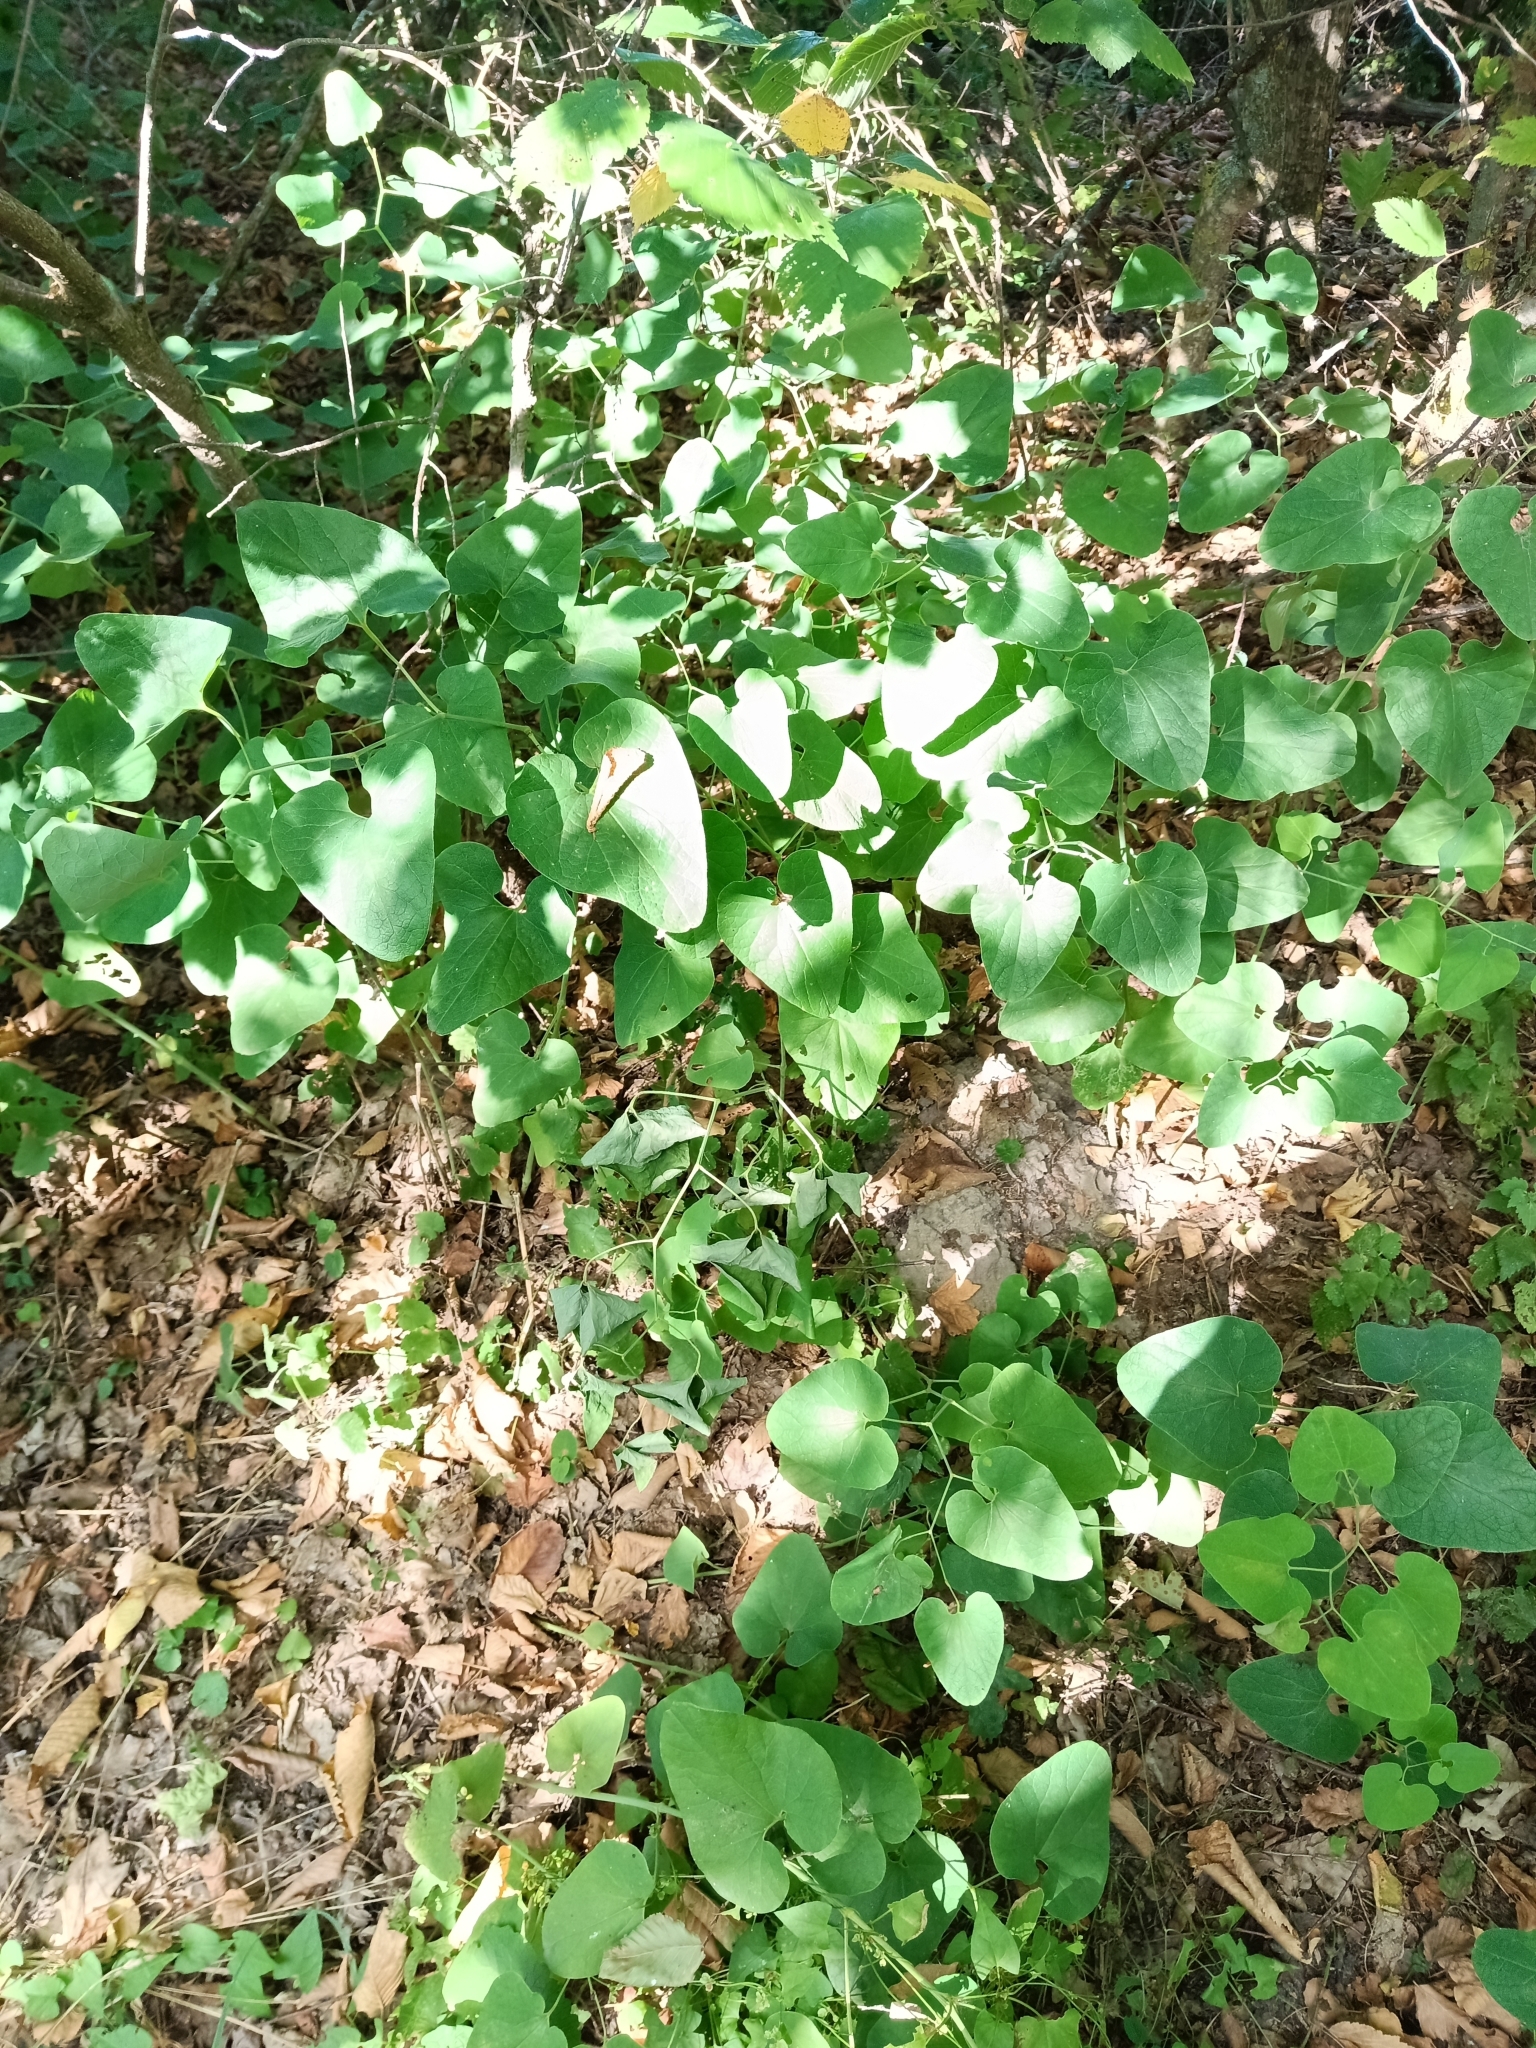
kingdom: Plantae
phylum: Tracheophyta
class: Magnoliopsida
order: Piperales
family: Aristolochiaceae
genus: Aristolochia
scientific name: Aristolochia clematitis
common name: Birthwort
